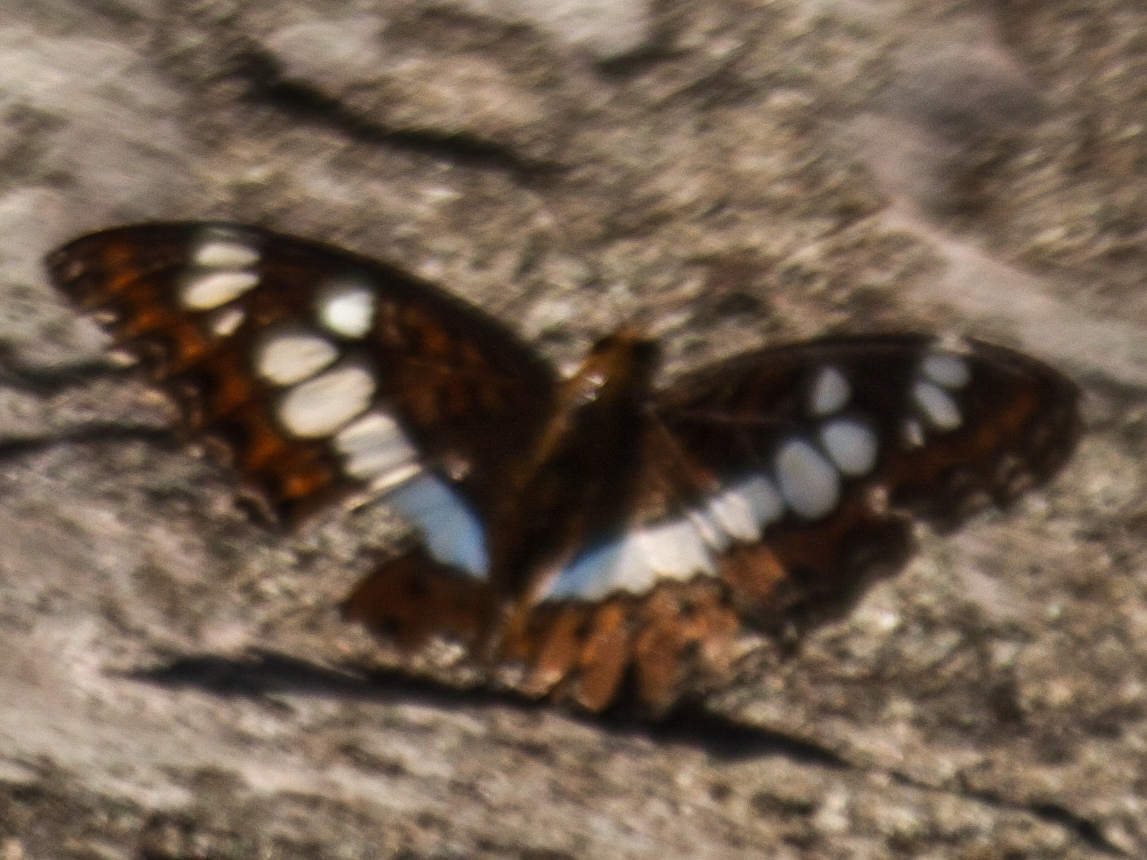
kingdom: Animalia
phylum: Arthropoda
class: Insecta
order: Lepidoptera
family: Nymphalidae
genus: Limenitis
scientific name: Limenitis Moduza procris
